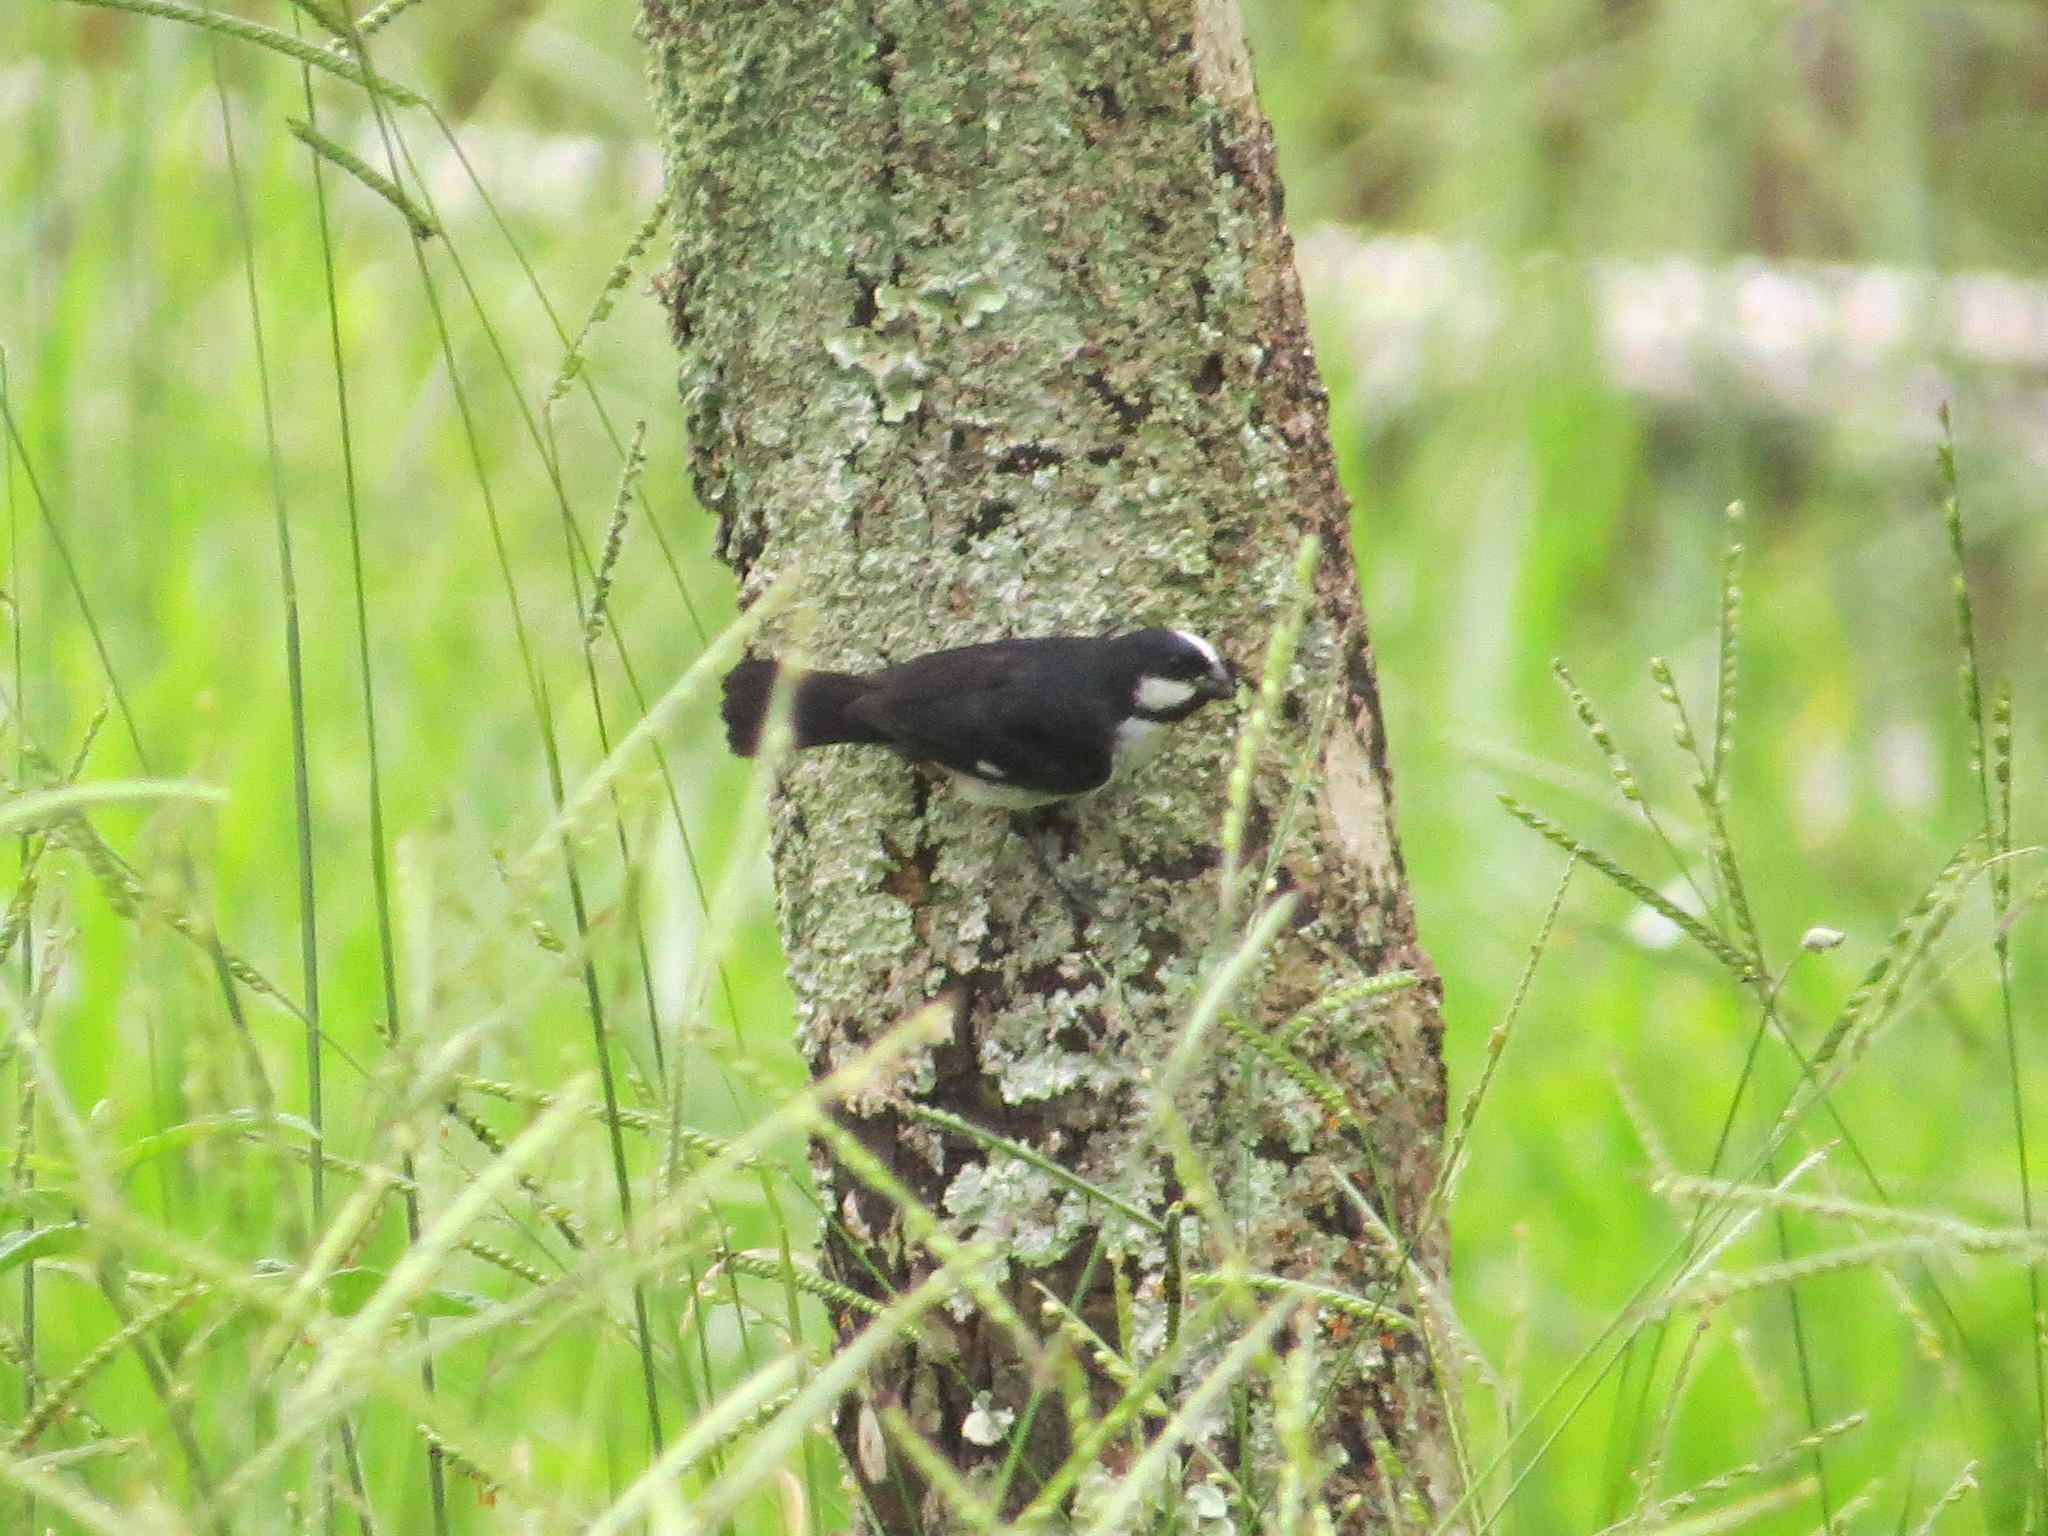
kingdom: Animalia
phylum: Chordata
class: Aves
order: Passeriformes
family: Thraupidae
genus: Sporophila
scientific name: Sporophila lineola
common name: Lined seedeater
